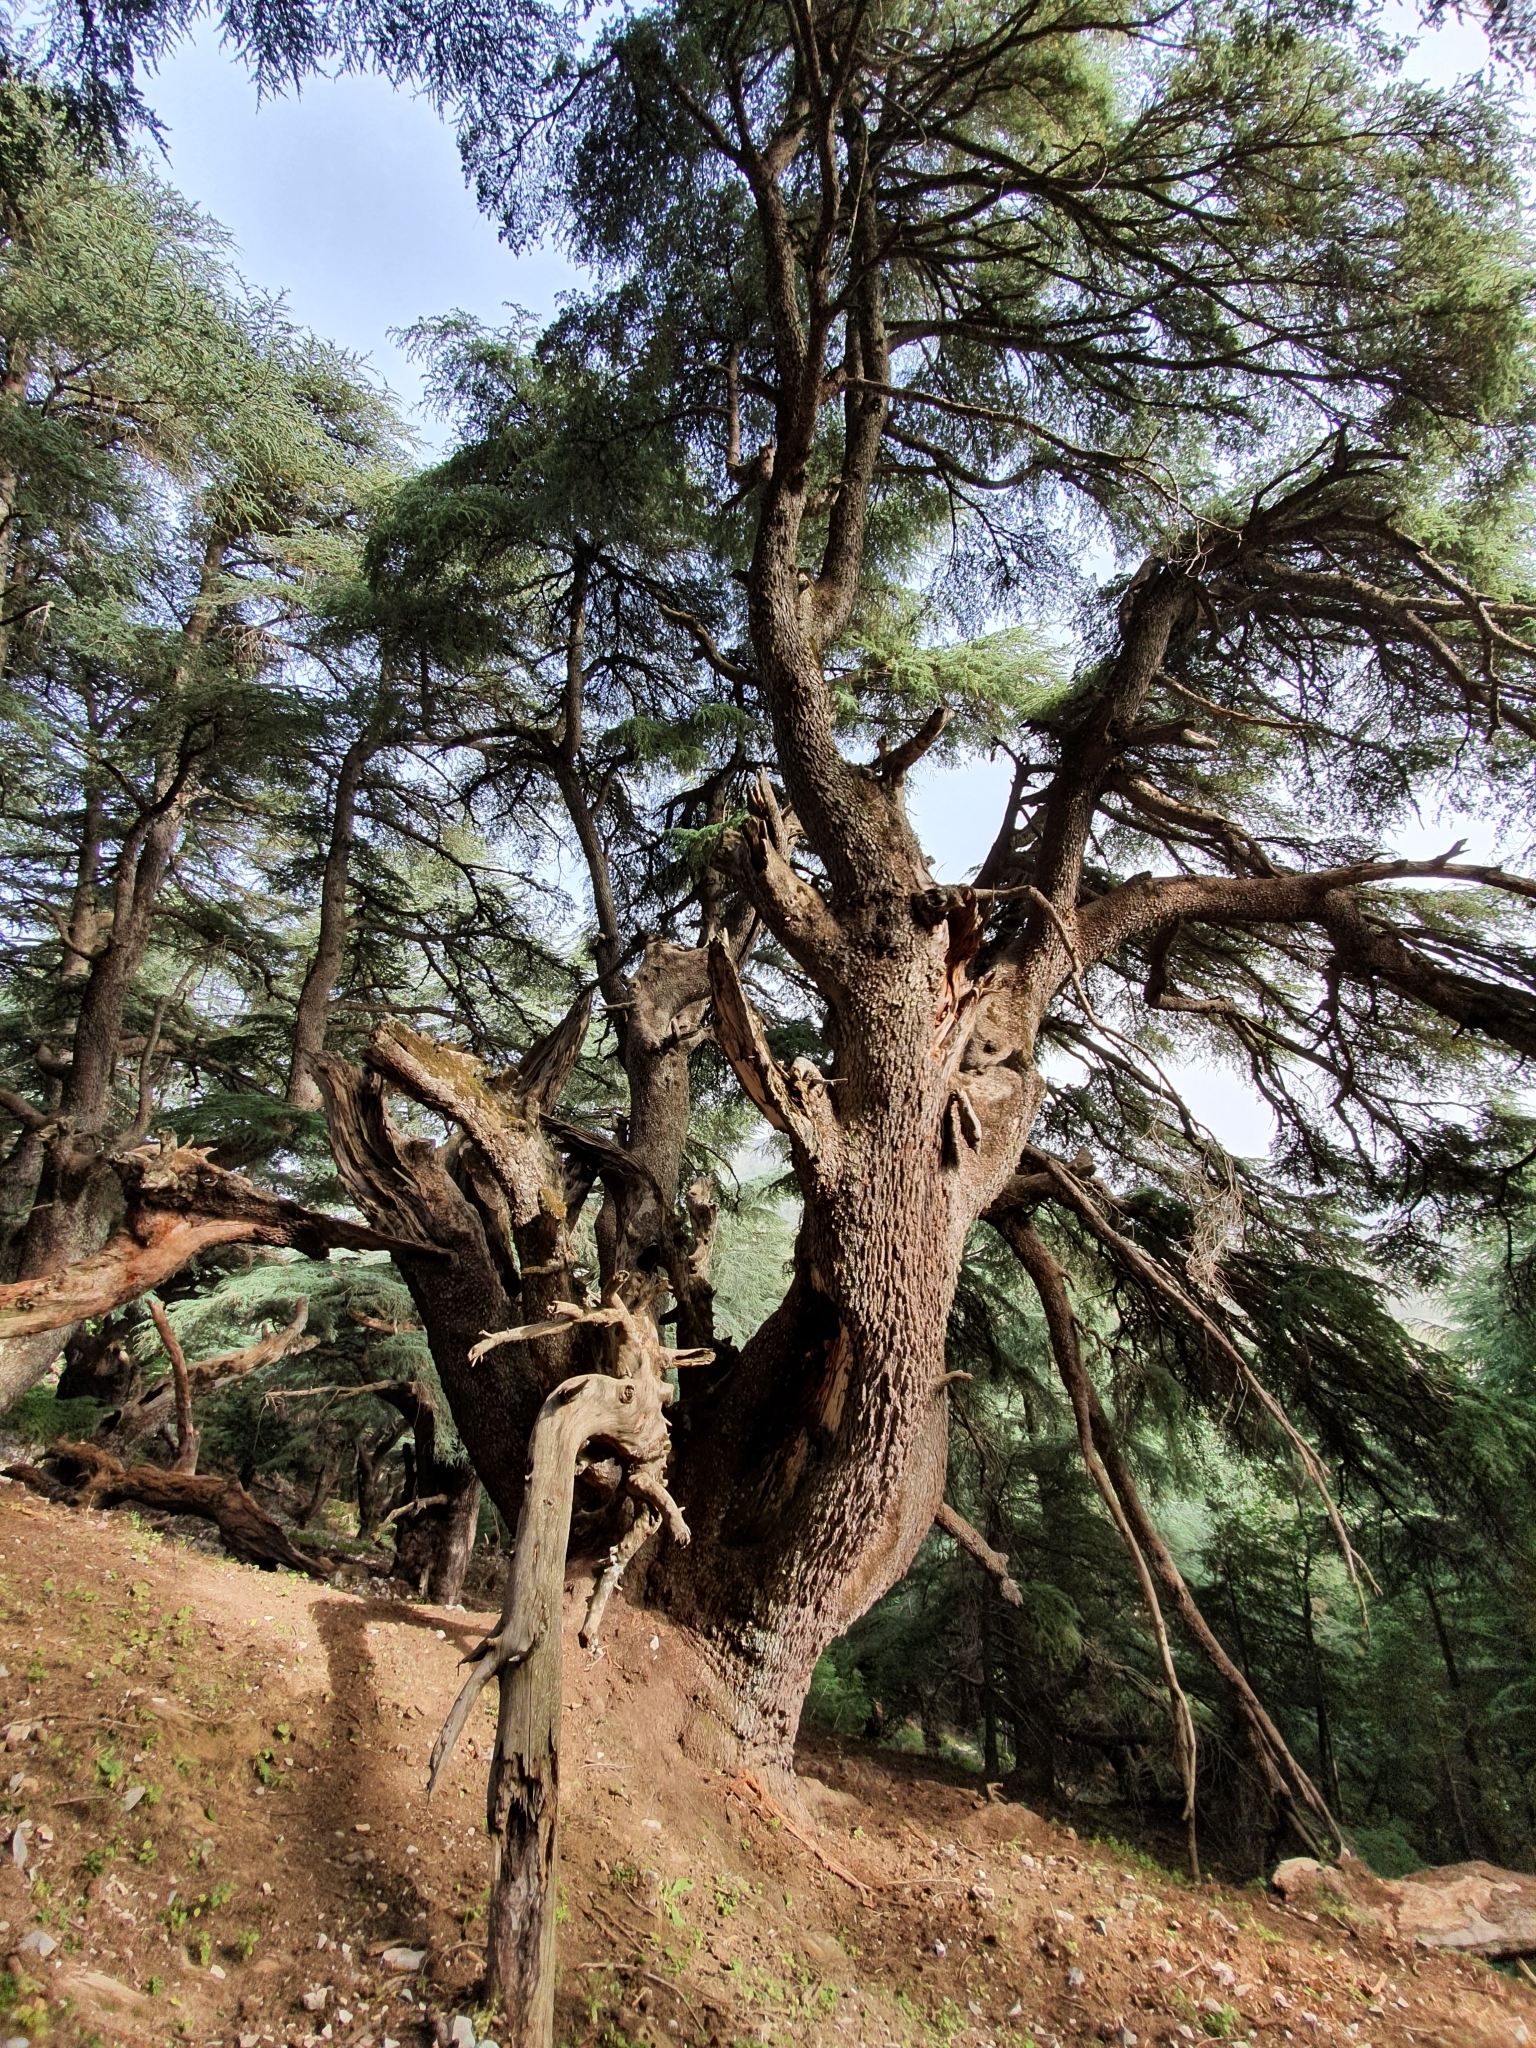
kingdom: Plantae
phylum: Tracheophyta
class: Pinopsida
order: Pinales
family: Pinaceae
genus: Cedrus
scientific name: Cedrus atlantica
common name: Atlas cedar
